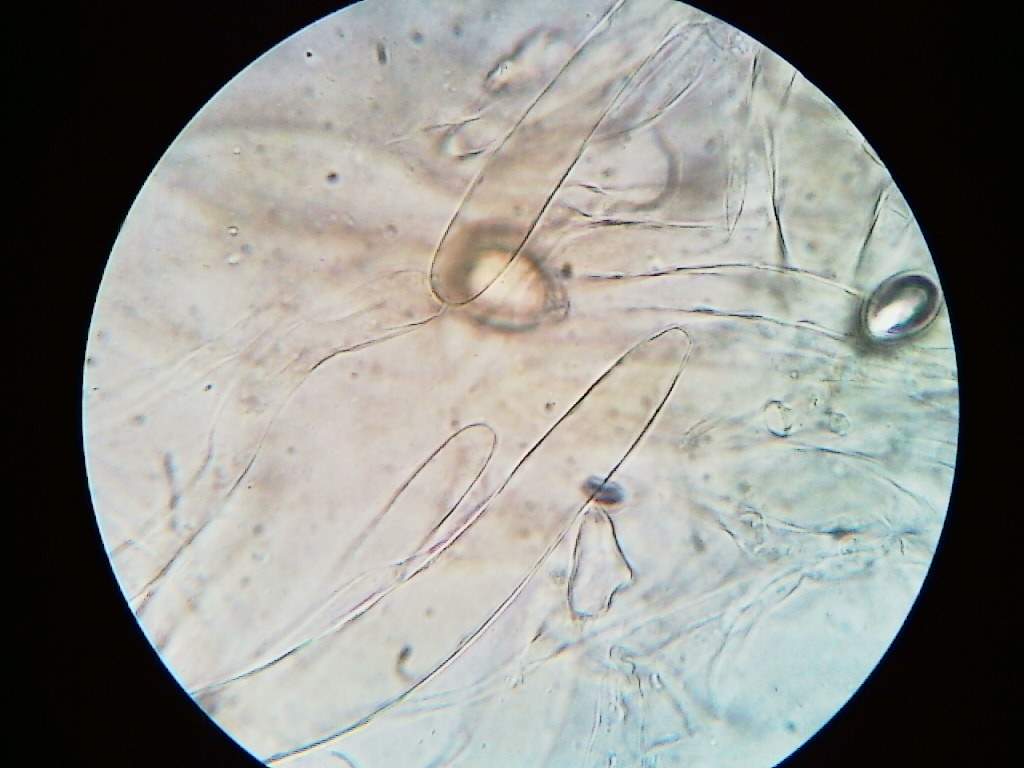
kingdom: Fungi
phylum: Basidiomycota
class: Agaricomycetes
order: Agaricales
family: Amanitaceae
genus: Amanita
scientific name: Amanita elongata
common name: Peck's yellow dust amanita
